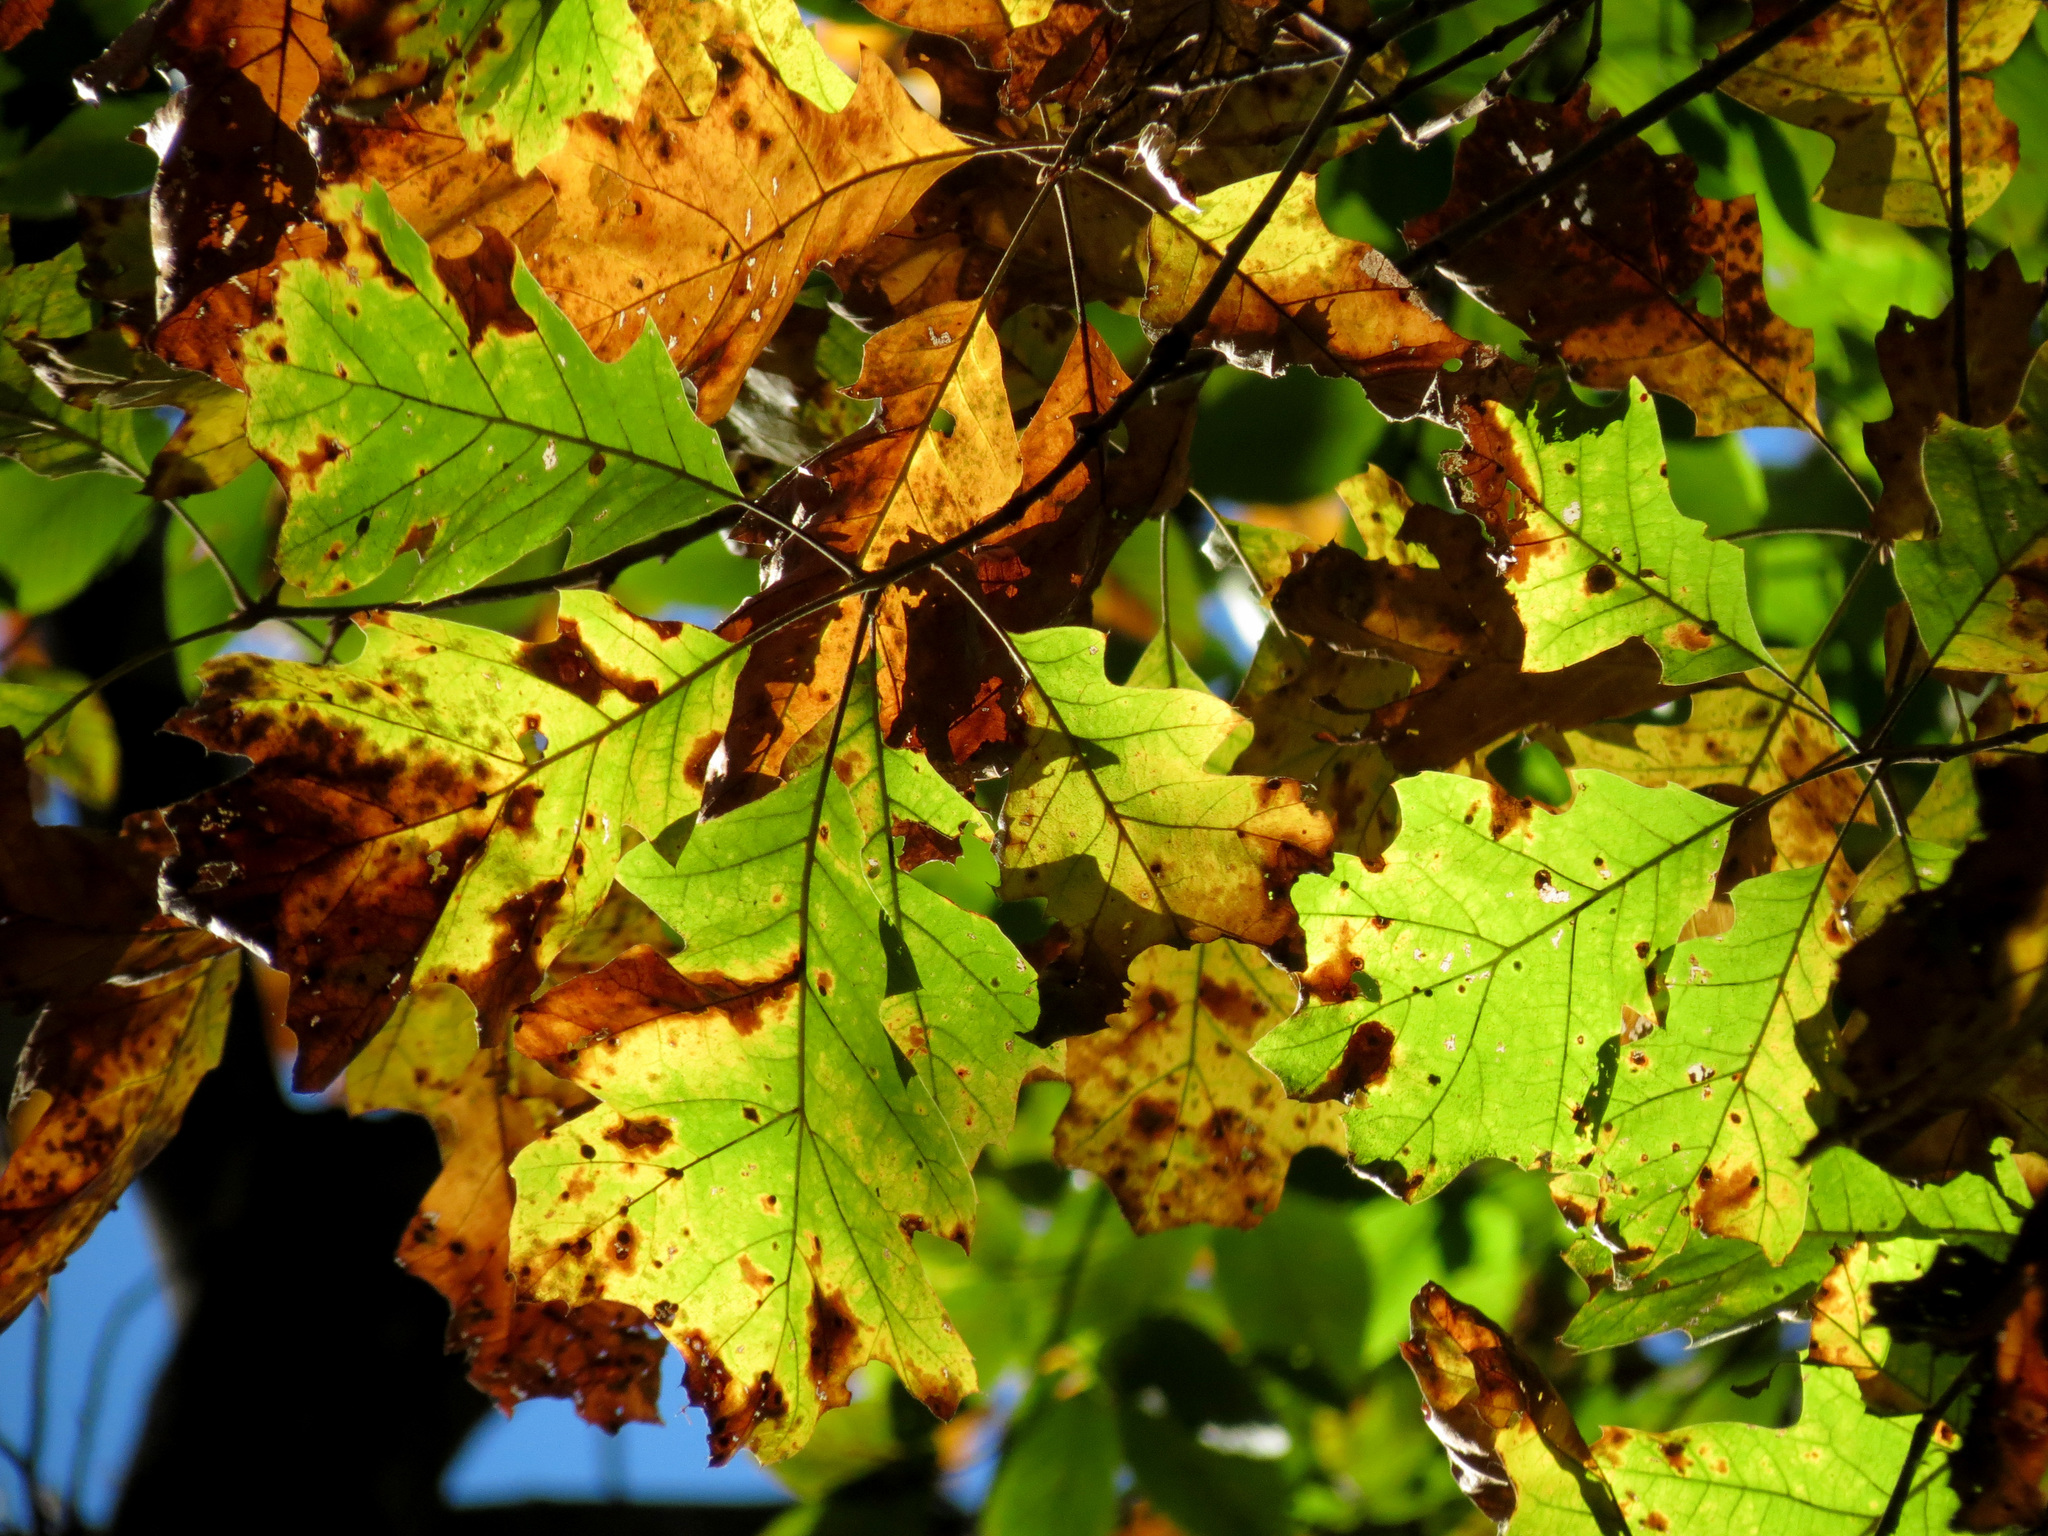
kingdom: Plantae
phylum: Tracheophyta
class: Magnoliopsida
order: Fagales
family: Fagaceae
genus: Quercus
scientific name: Quercus velutina
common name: Black oak
